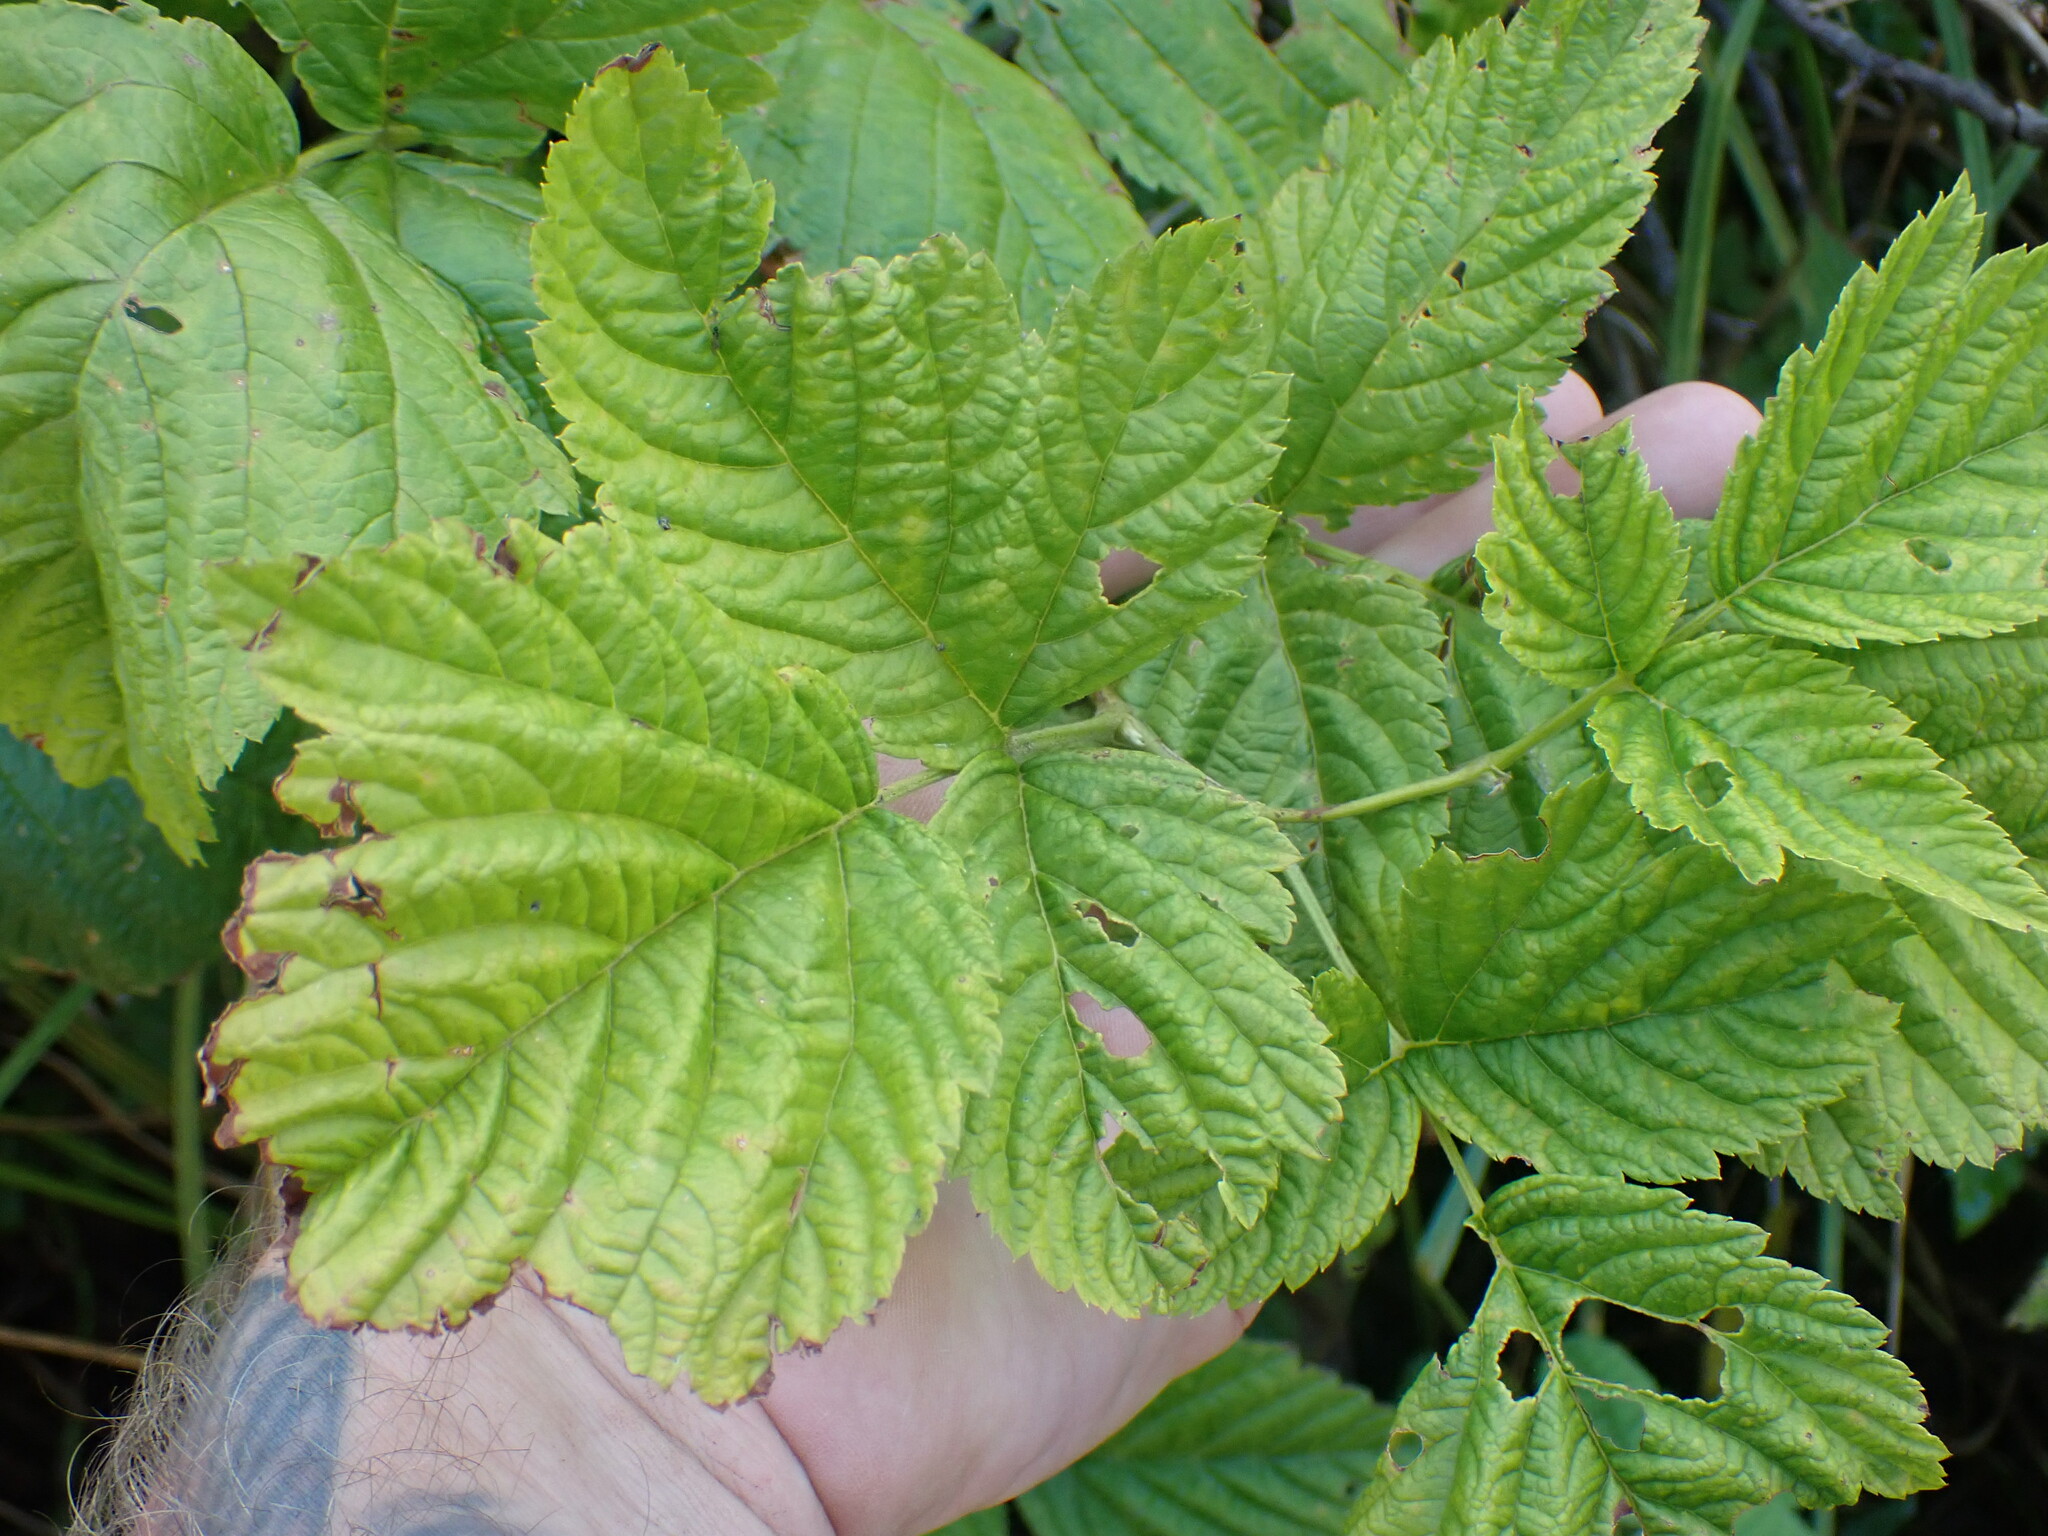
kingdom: Plantae
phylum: Tracheophyta
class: Magnoliopsida
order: Rosales
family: Rosaceae
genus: Rubus
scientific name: Rubus spectabilis
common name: Salmonberry
